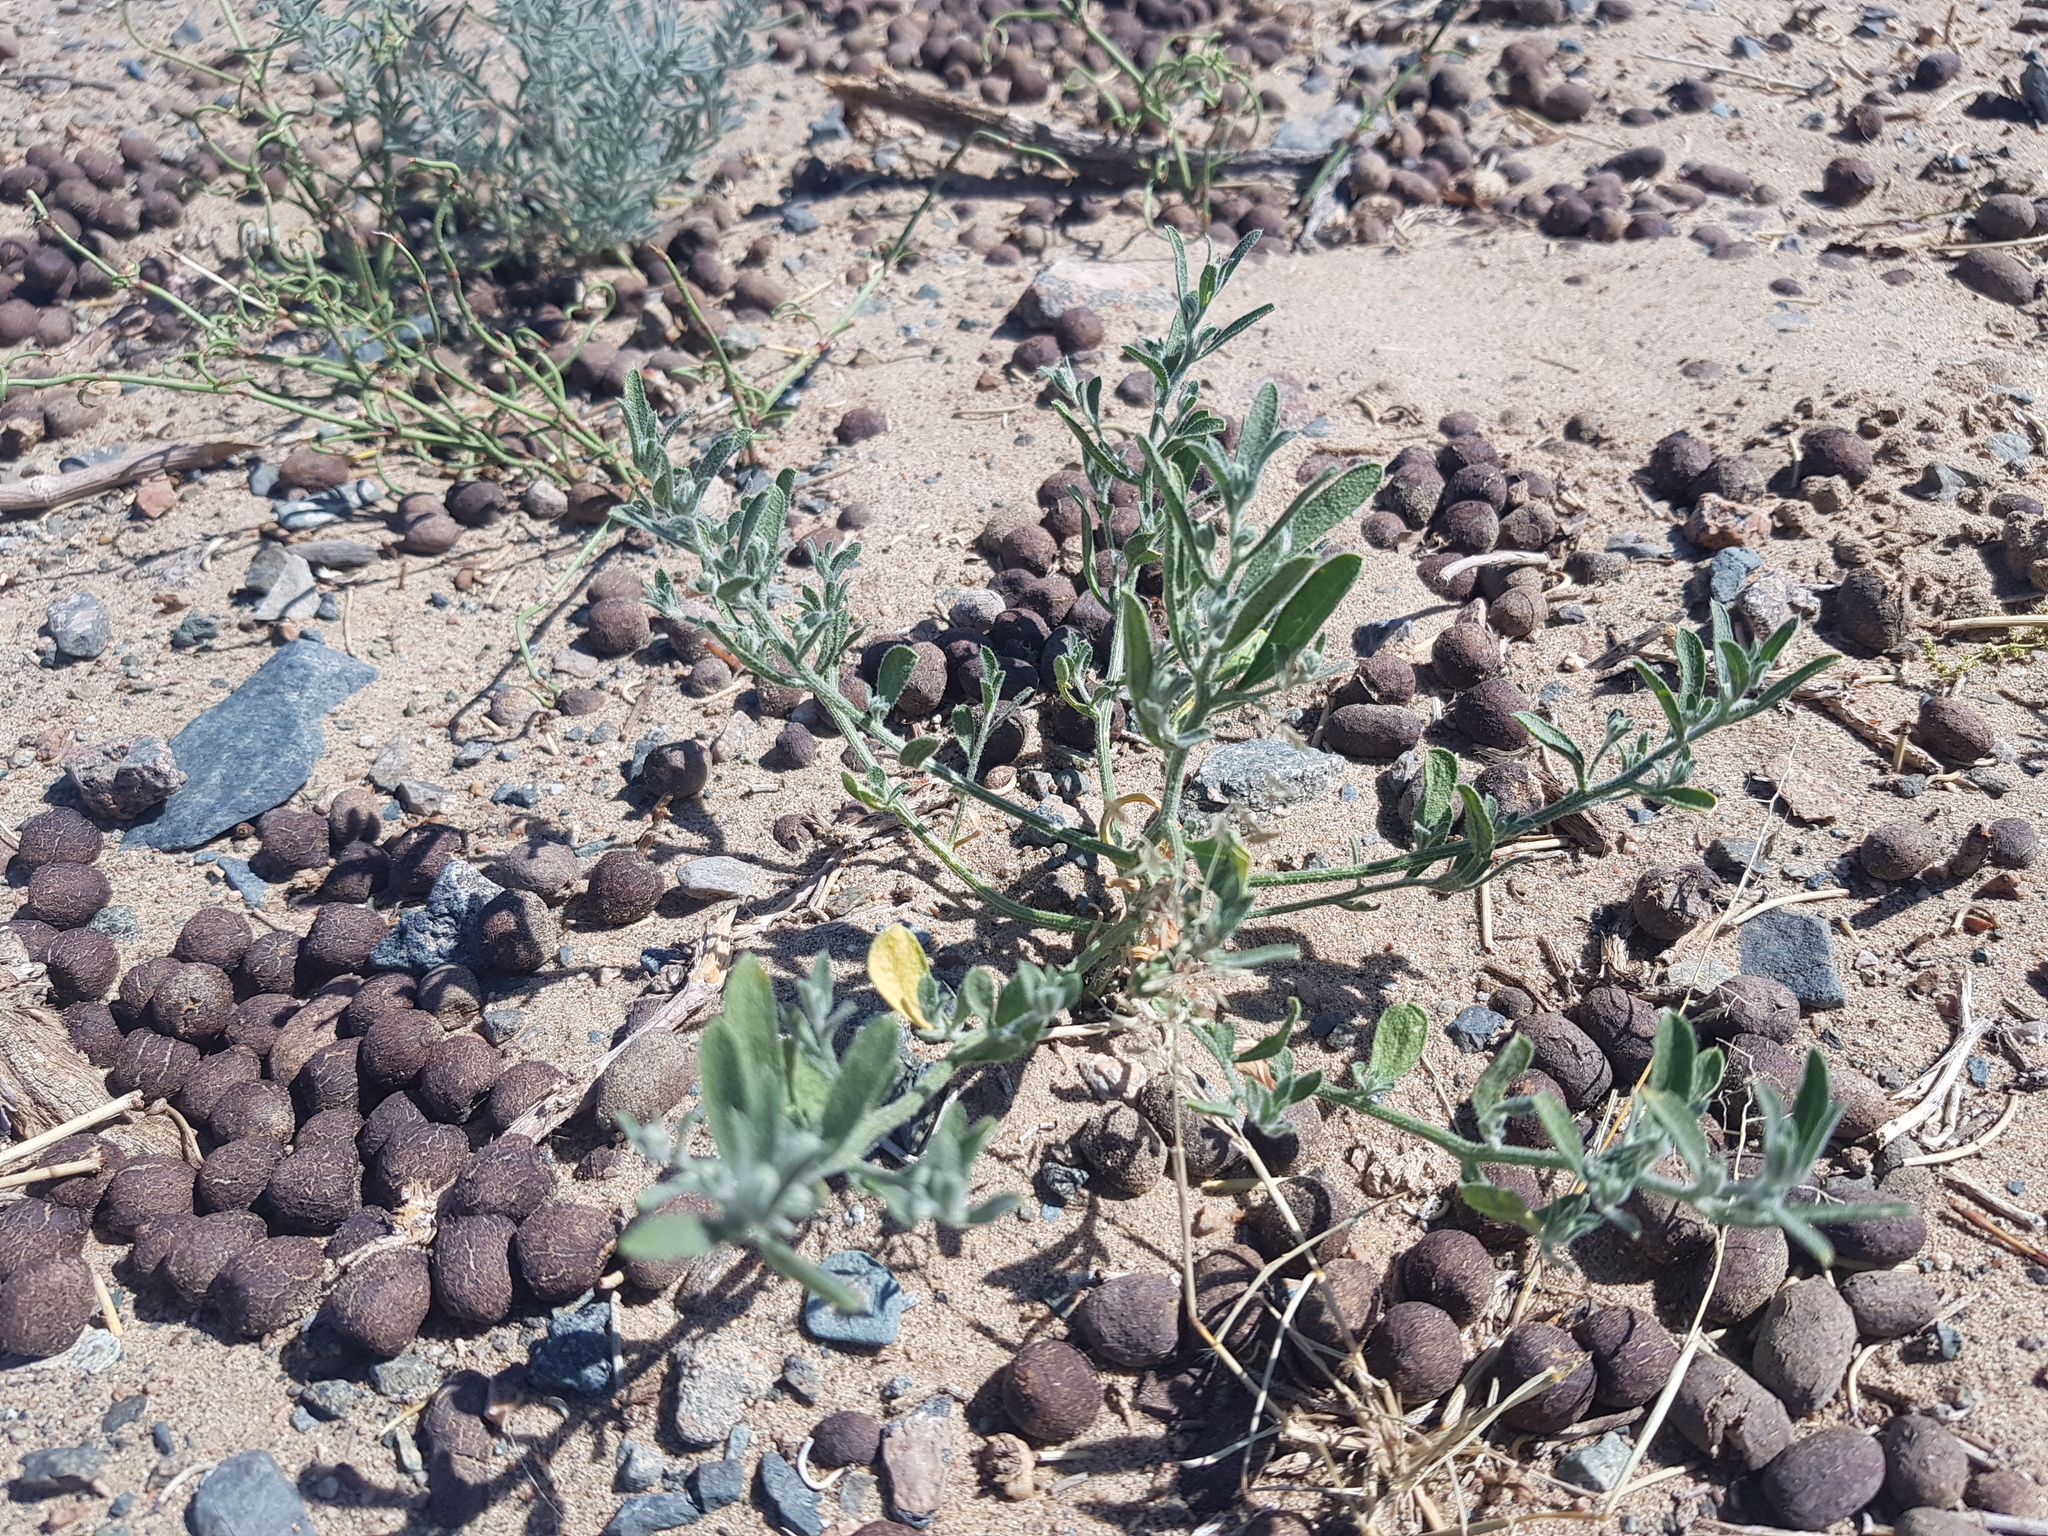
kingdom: Plantae
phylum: Tracheophyta
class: Magnoliopsida
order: Brassicales
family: Brassicaceae
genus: Dontostemon
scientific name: Dontostemon elegans
